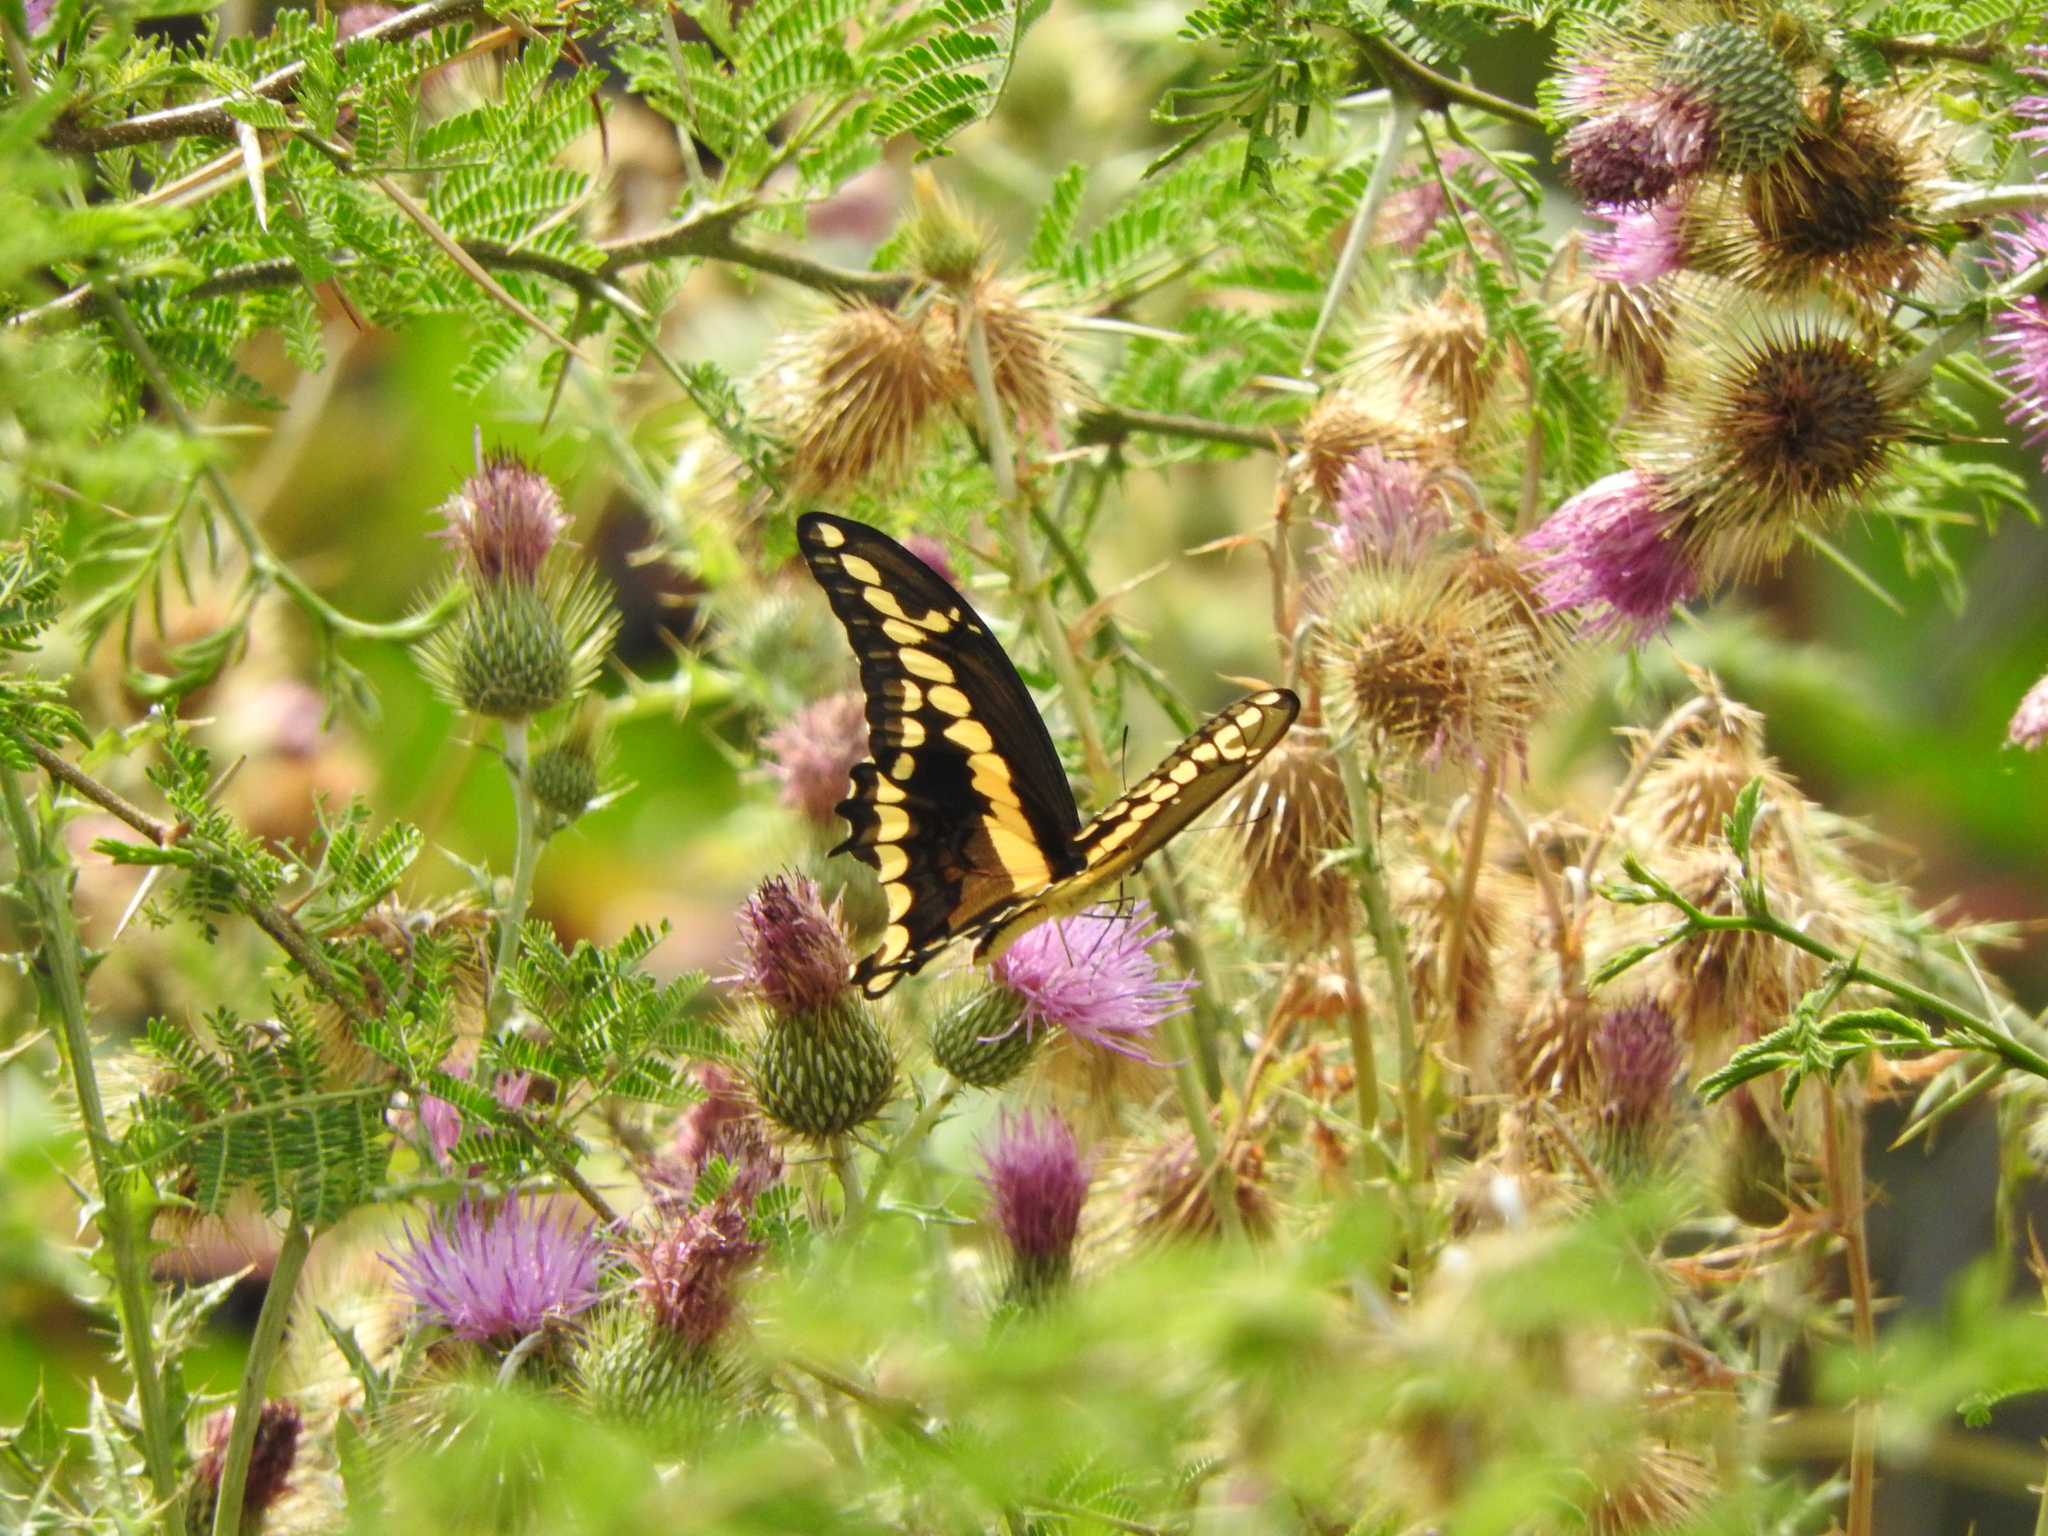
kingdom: Animalia
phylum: Arthropoda
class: Insecta
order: Lepidoptera
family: Papilionidae
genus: Papilio
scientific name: Papilio rumiko
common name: Western giant swallowtail
